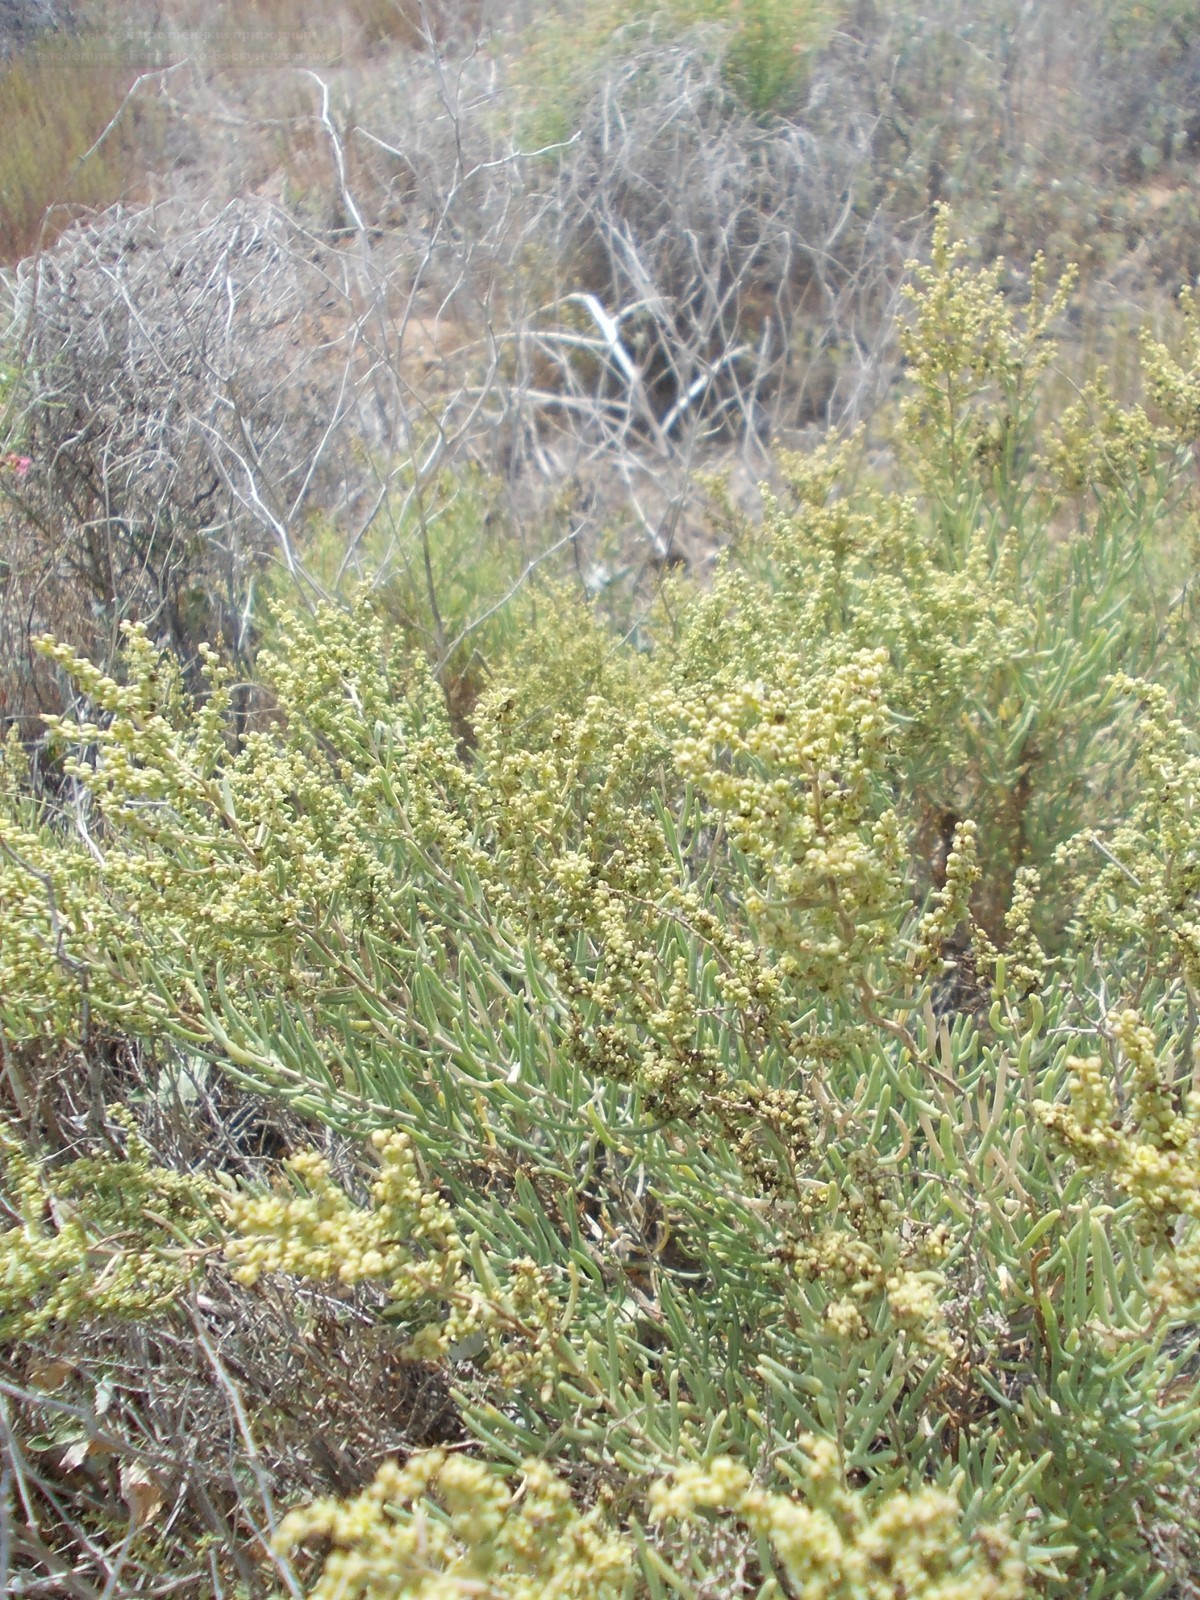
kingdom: Plantae
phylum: Tracheophyta
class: Magnoliopsida
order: Caryophyllales
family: Amaranthaceae
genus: Suaeda
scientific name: Suaeda physophora
